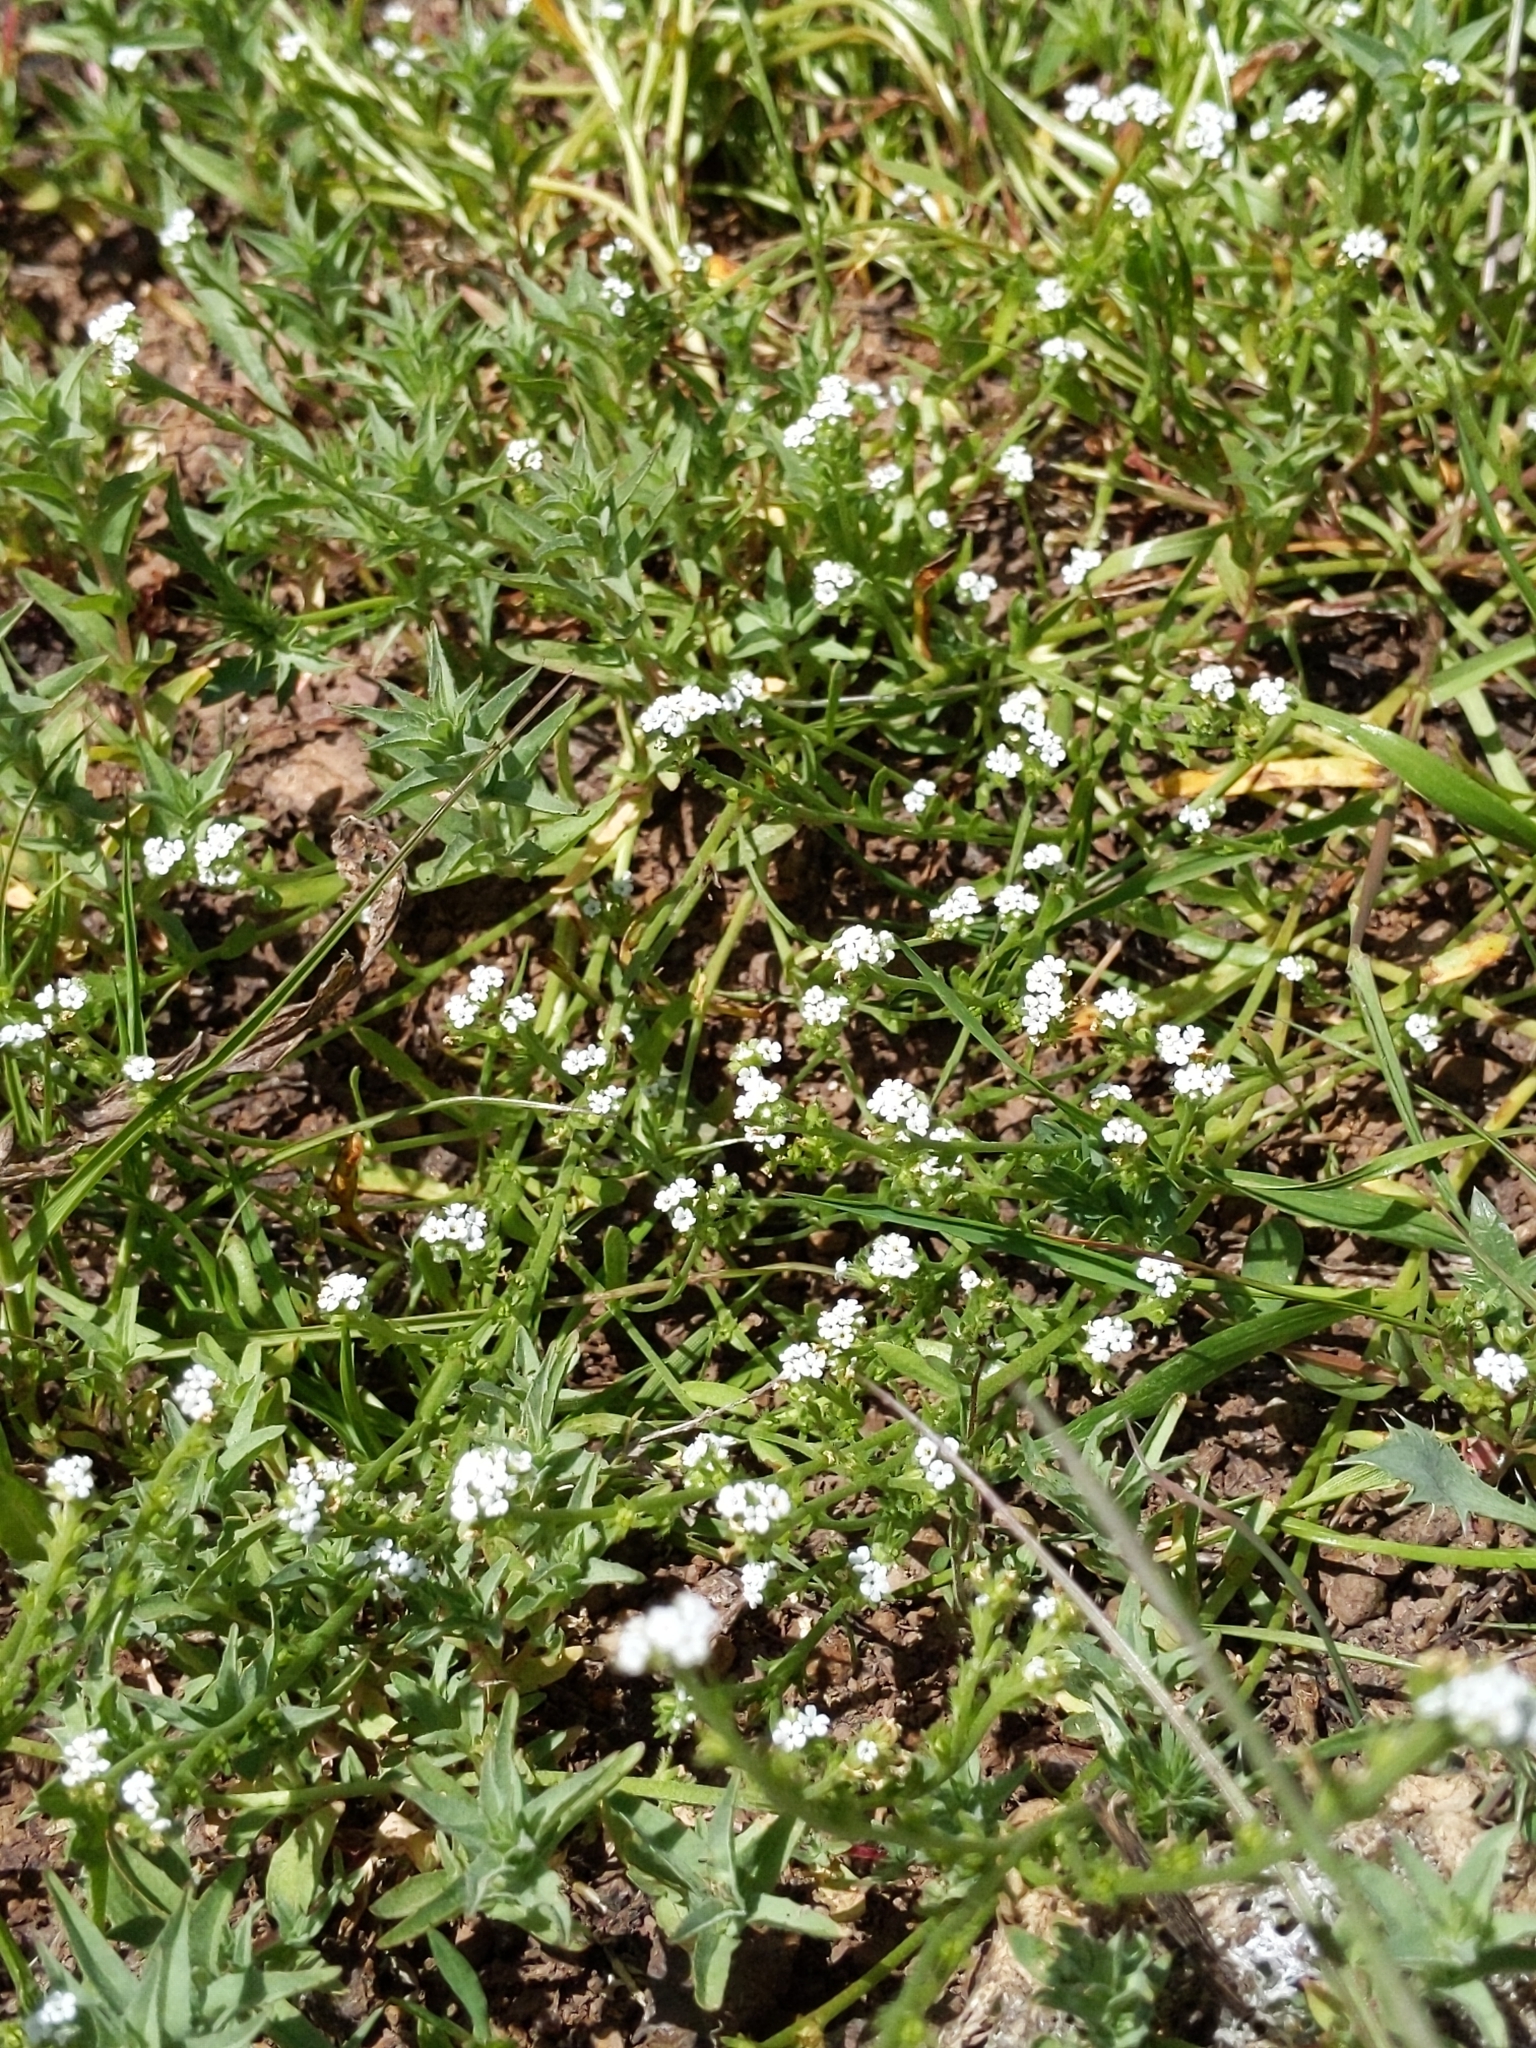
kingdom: Plantae
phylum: Tracheophyta
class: Magnoliopsida
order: Boraginales
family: Boraginaceae
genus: Plagiobothrys
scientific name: Plagiobothrys bracteatus
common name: Bract popcorn-flower
